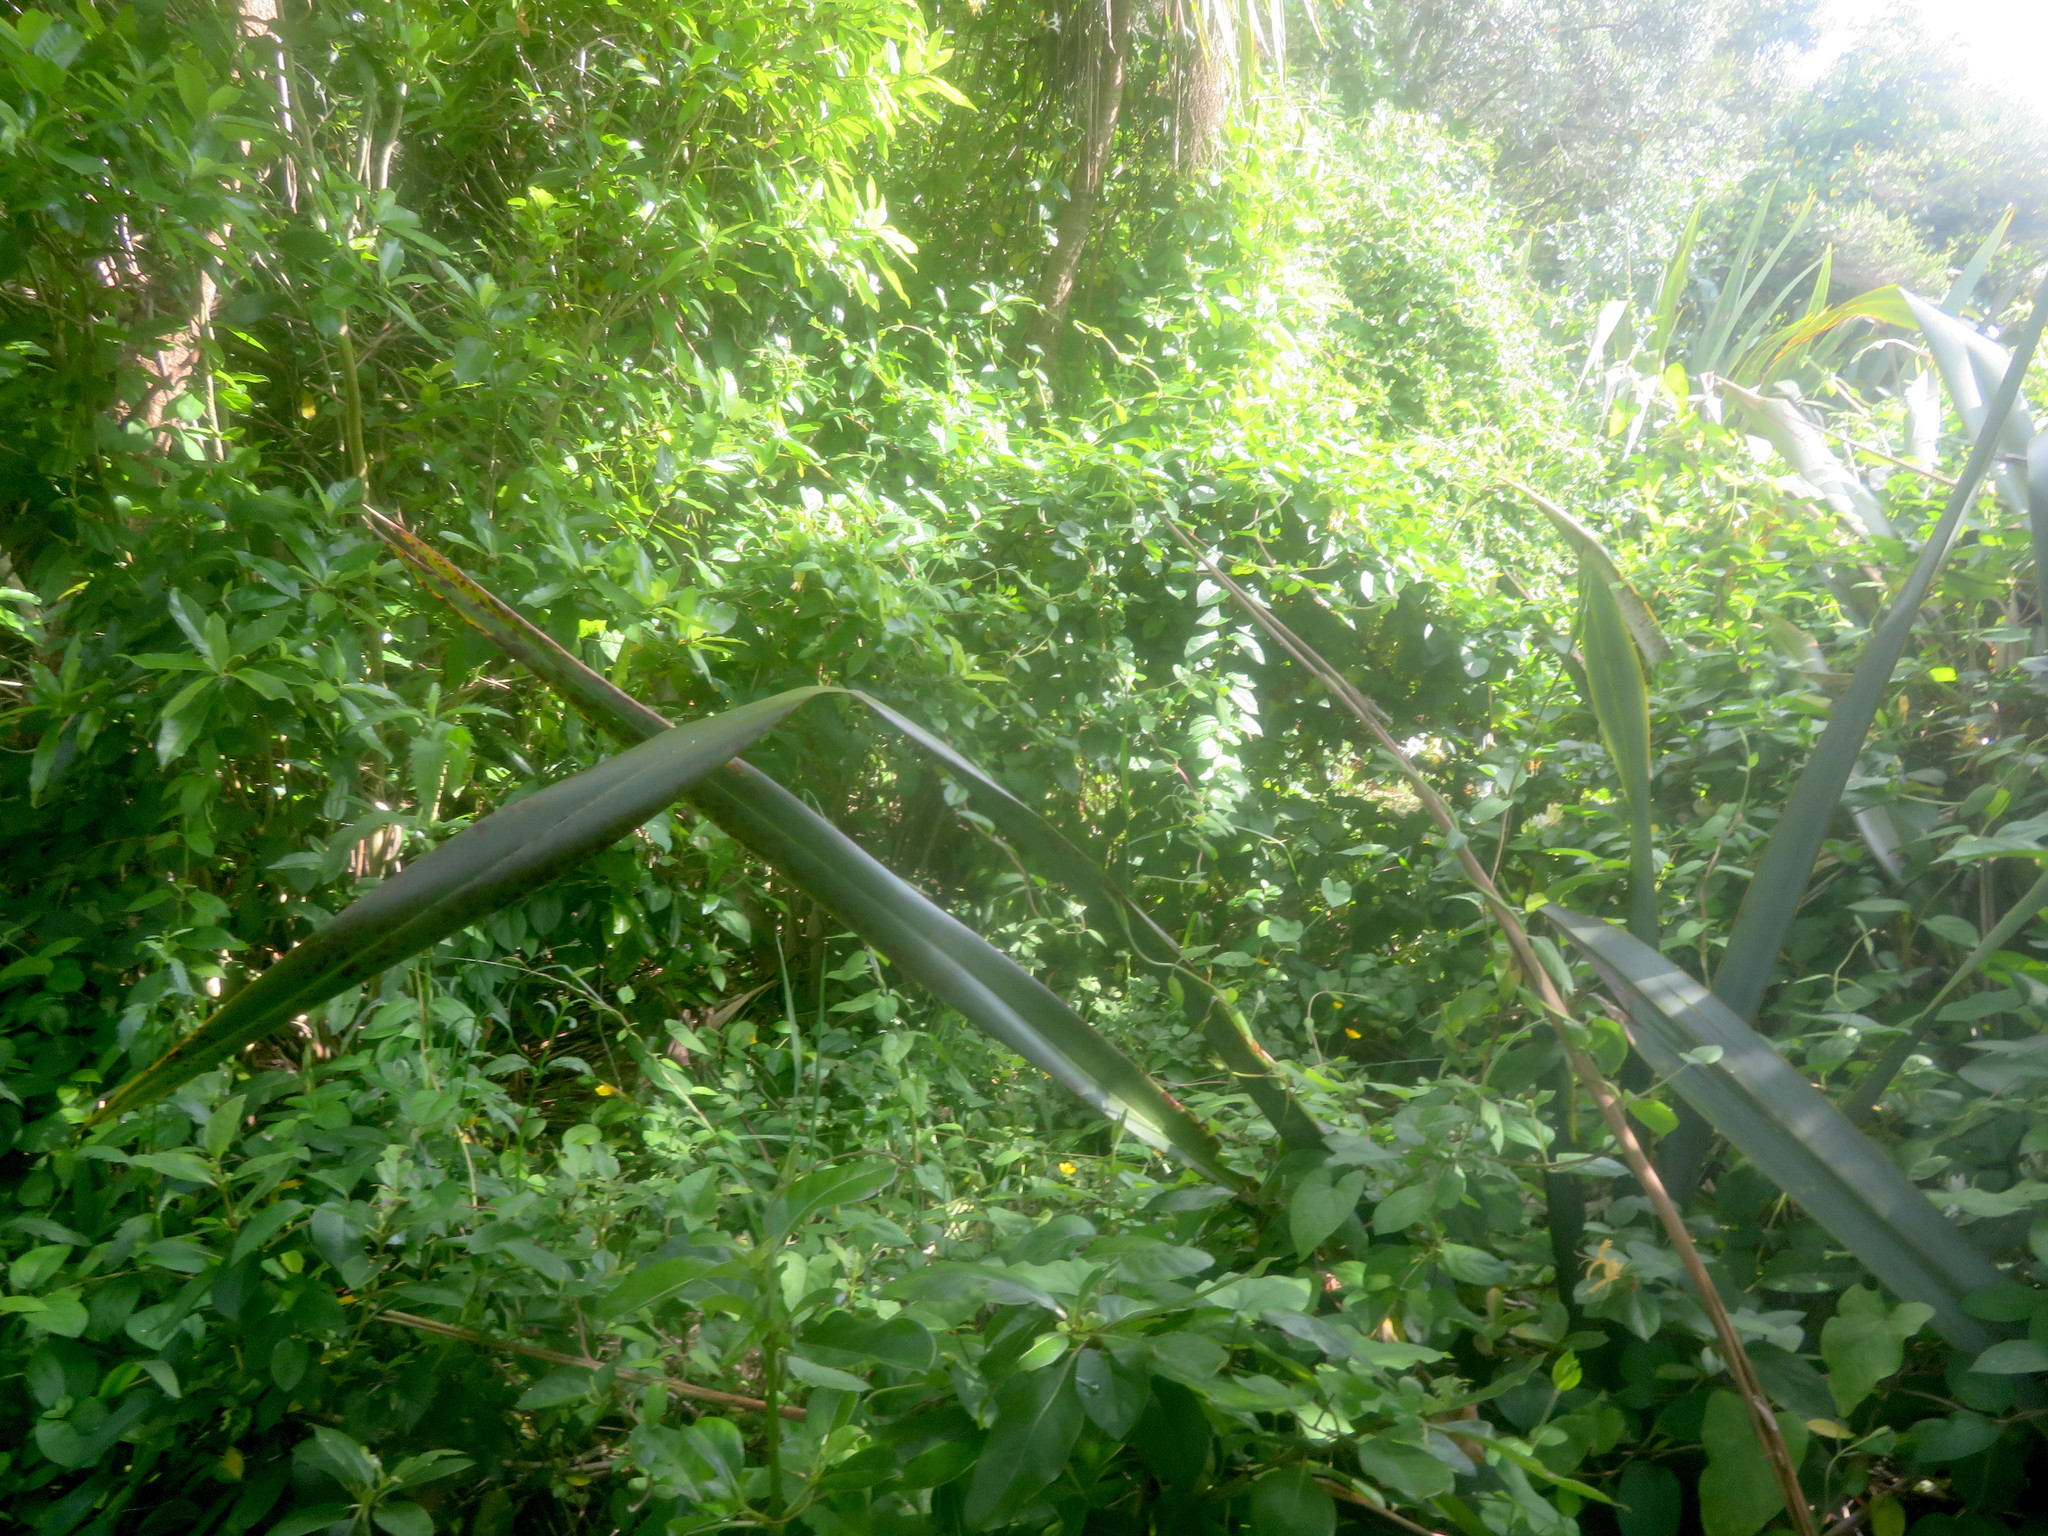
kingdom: Plantae
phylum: Tracheophyta
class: Magnoliopsida
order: Malpighiales
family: Violaceae
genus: Melicytus
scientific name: Melicytus ramiflorus
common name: Mahoe
